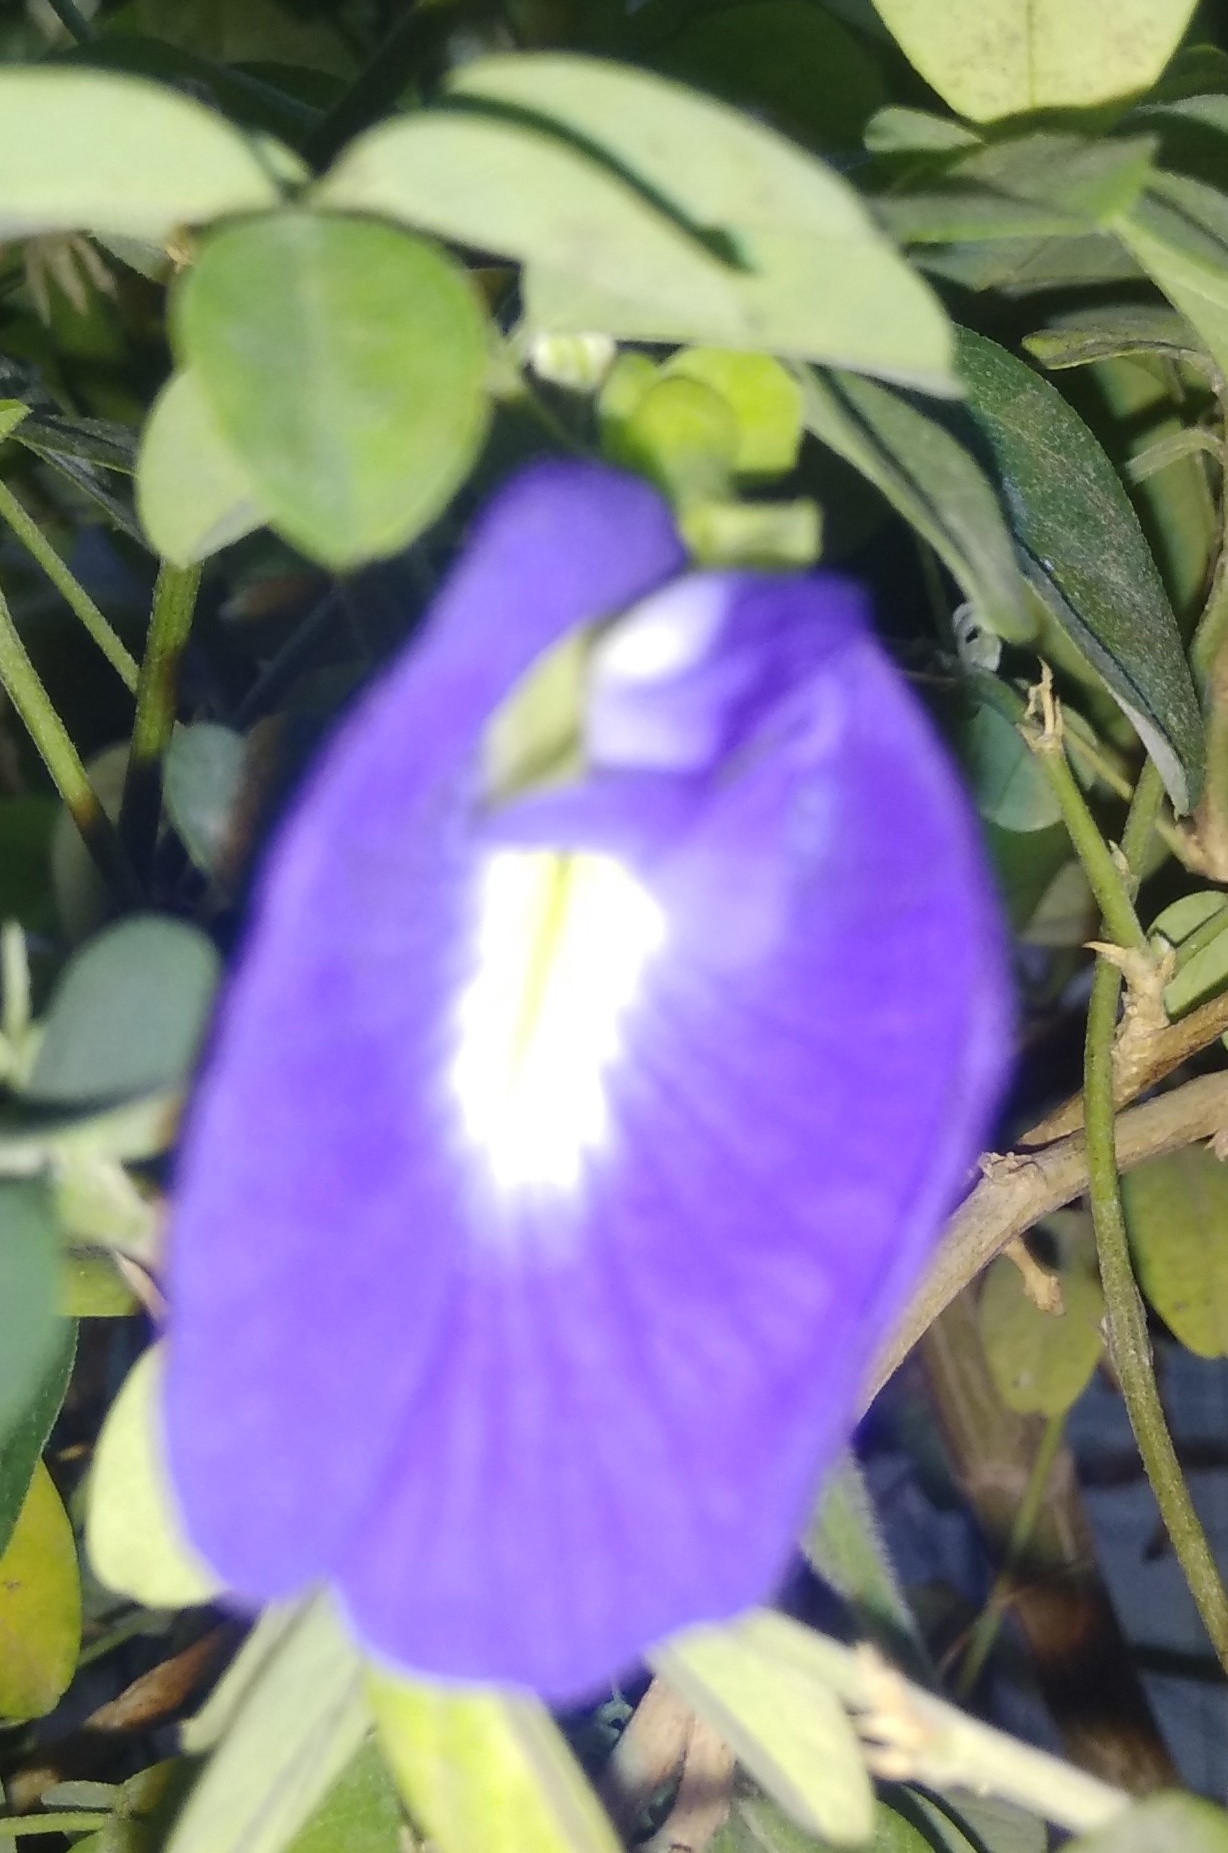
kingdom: Plantae
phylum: Tracheophyta
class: Magnoliopsida
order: Fabales
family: Fabaceae
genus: Clitoria
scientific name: Clitoria ternatea
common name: Asian pigeonwings
